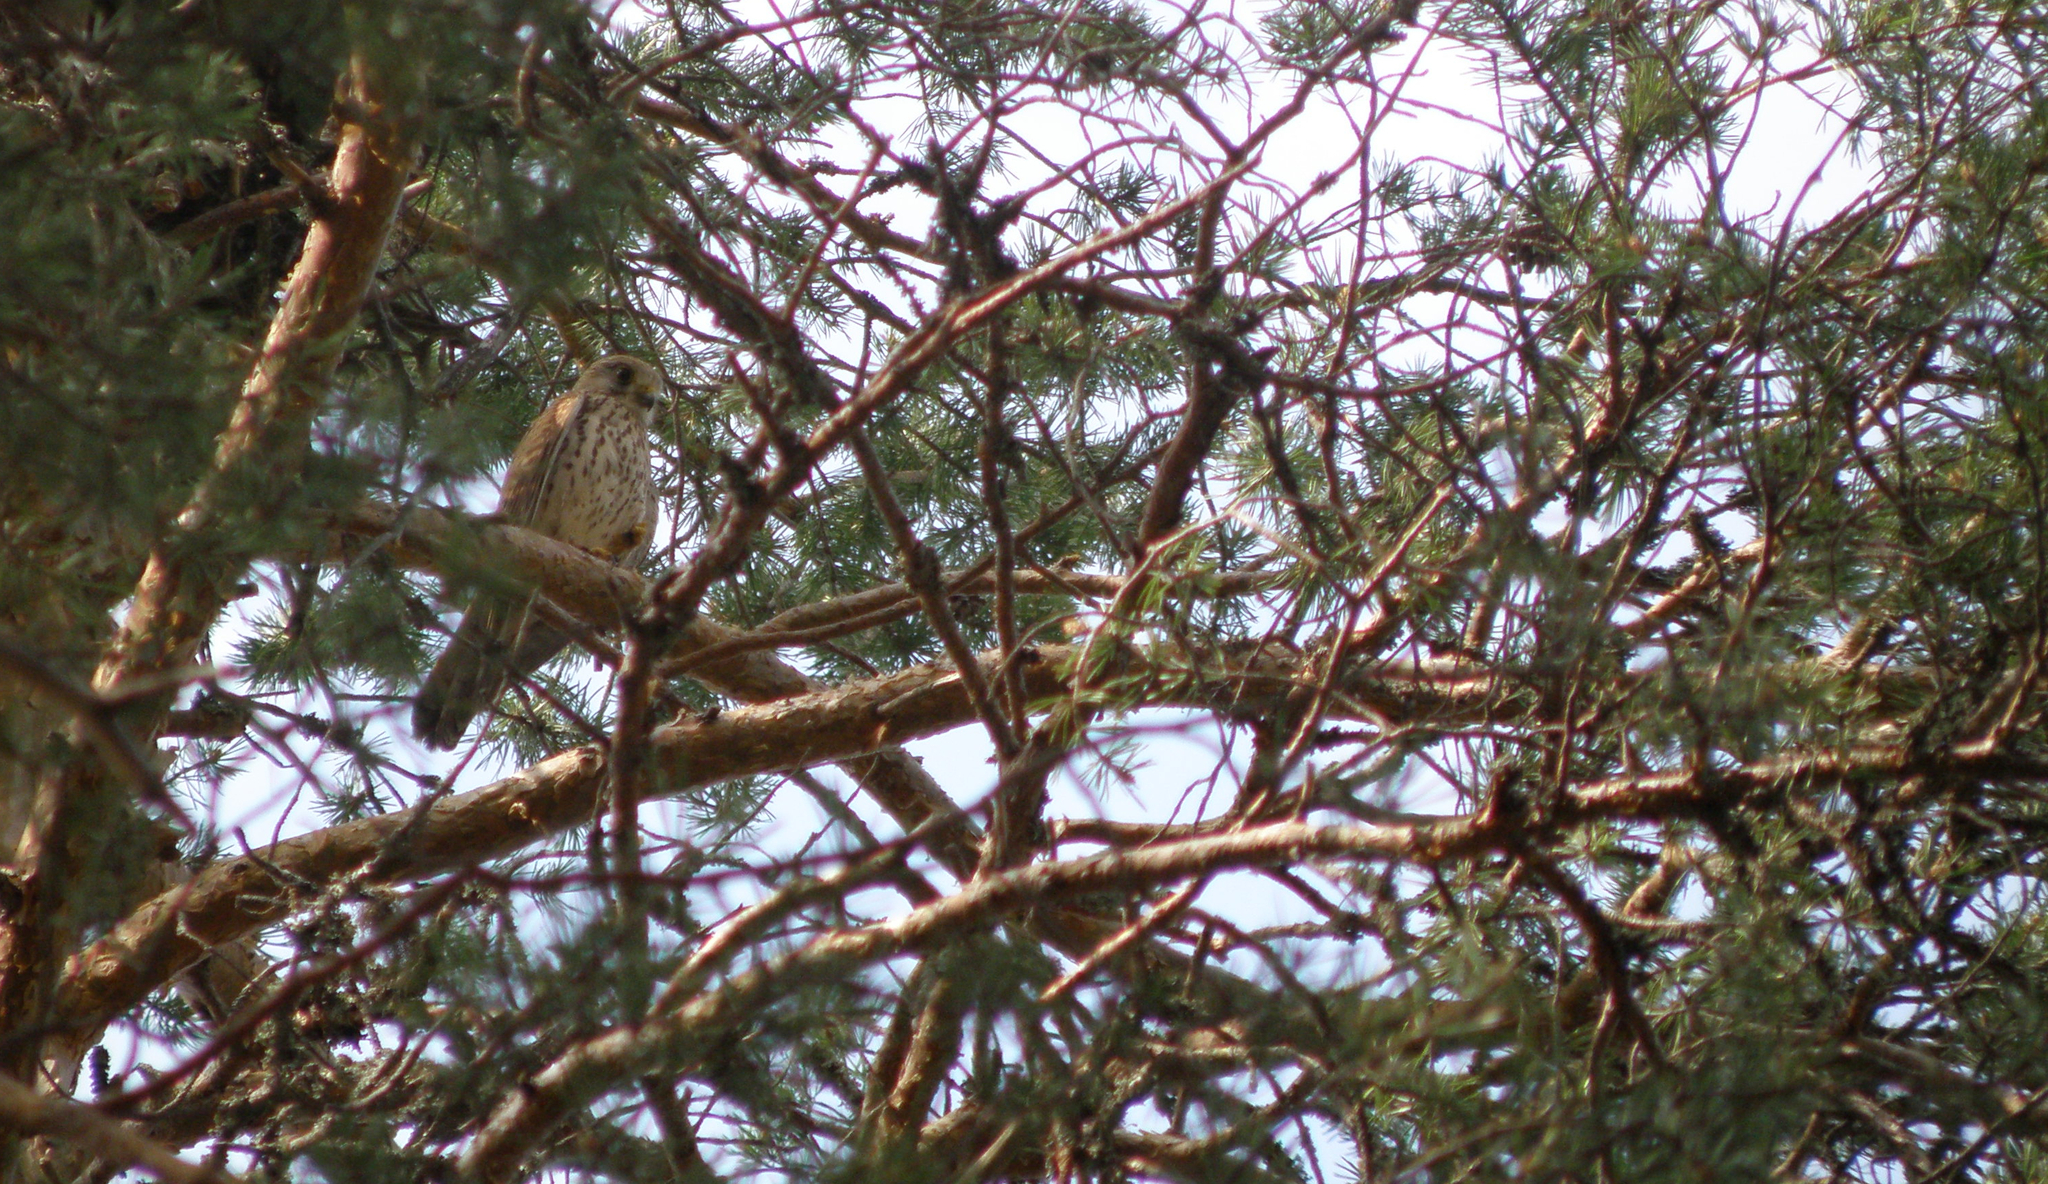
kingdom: Animalia
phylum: Chordata
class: Aves
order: Falconiformes
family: Falconidae
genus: Falco
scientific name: Falco tinnunculus
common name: Common kestrel
